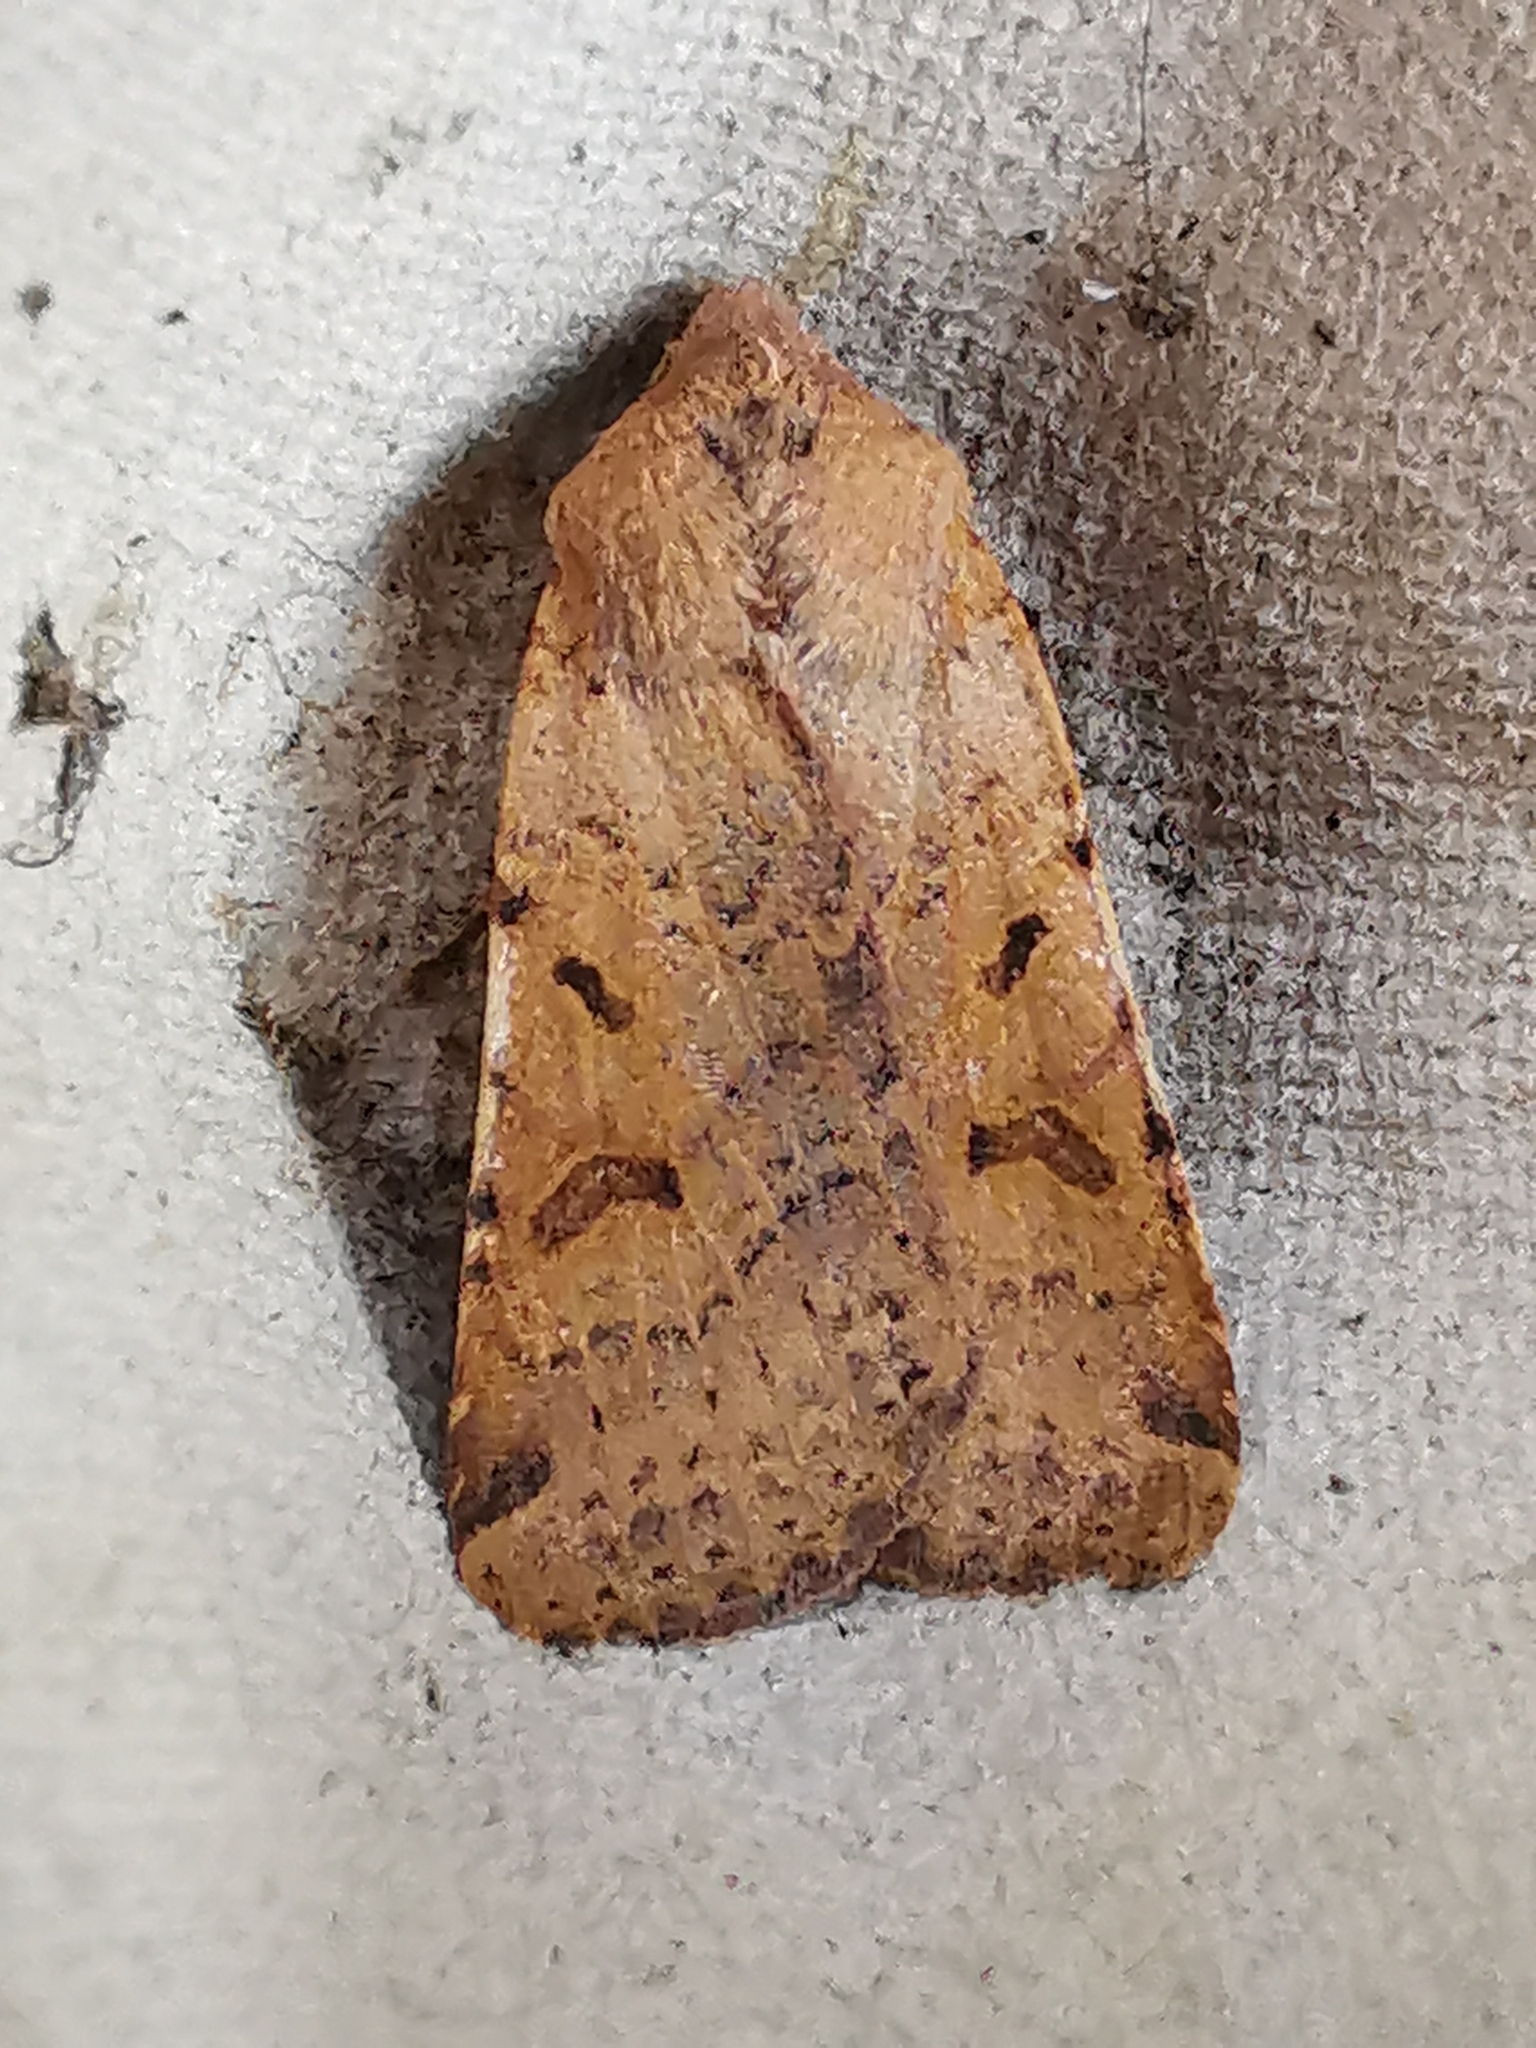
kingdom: Animalia
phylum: Arthropoda
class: Insecta
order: Lepidoptera
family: Noctuidae
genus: Agrochola
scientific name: Agrochola lychnidis
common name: Beaded chestnut
